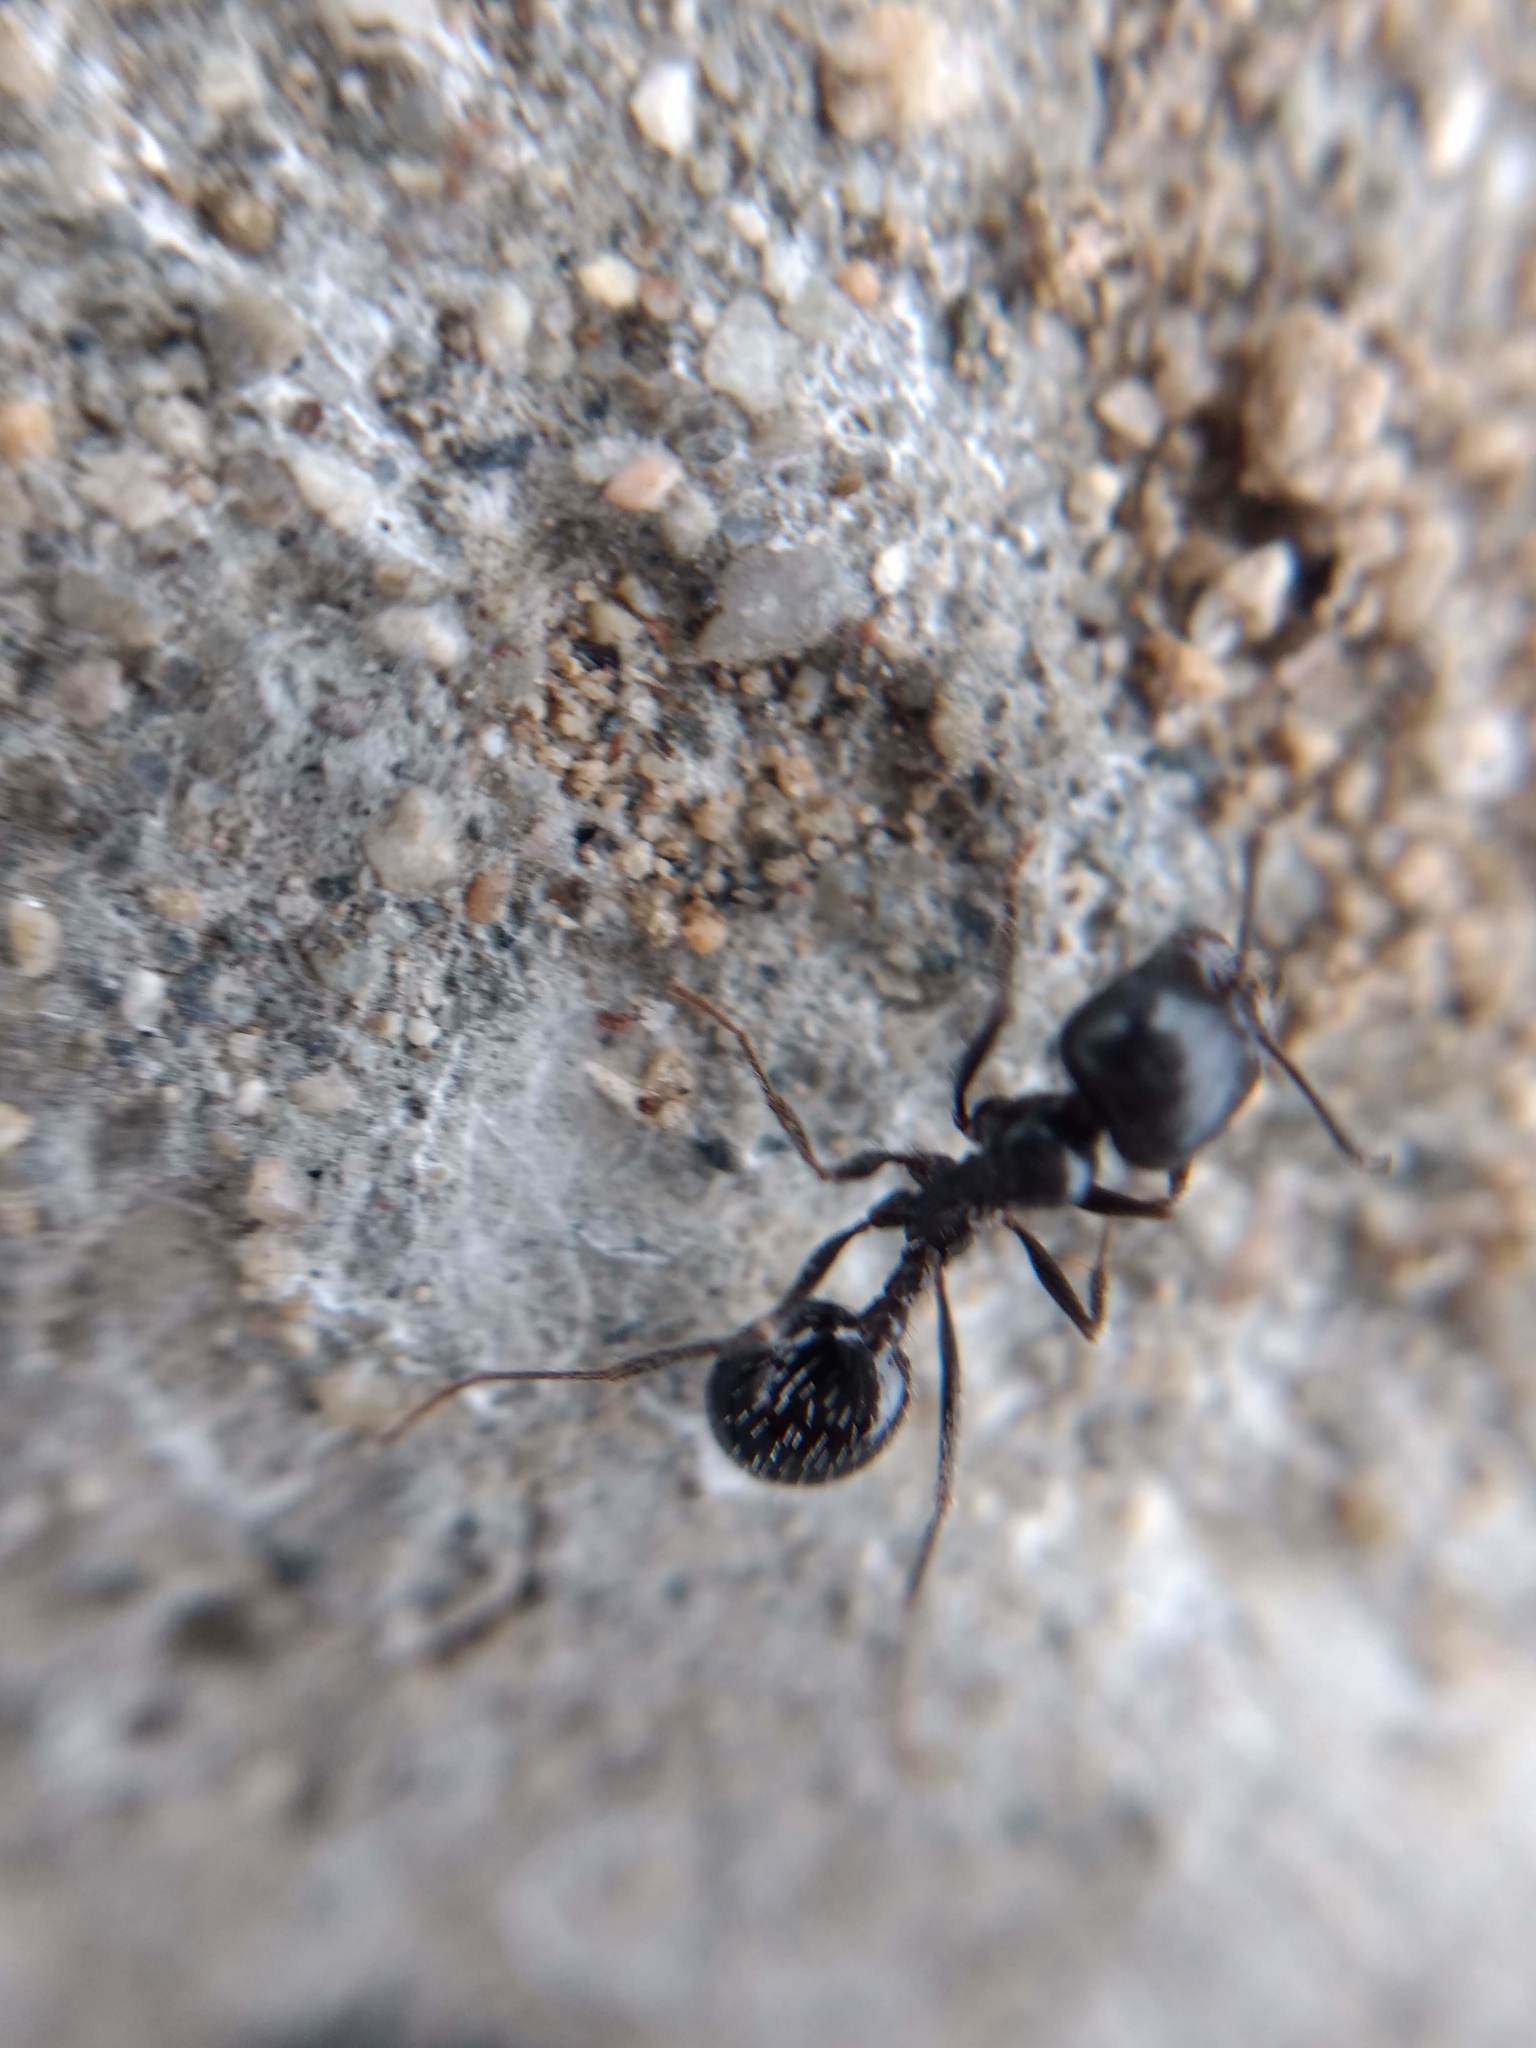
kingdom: Animalia
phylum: Arthropoda
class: Insecta
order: Hymenoptera
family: Formicidae
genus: Messor
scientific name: Messor pergandei
